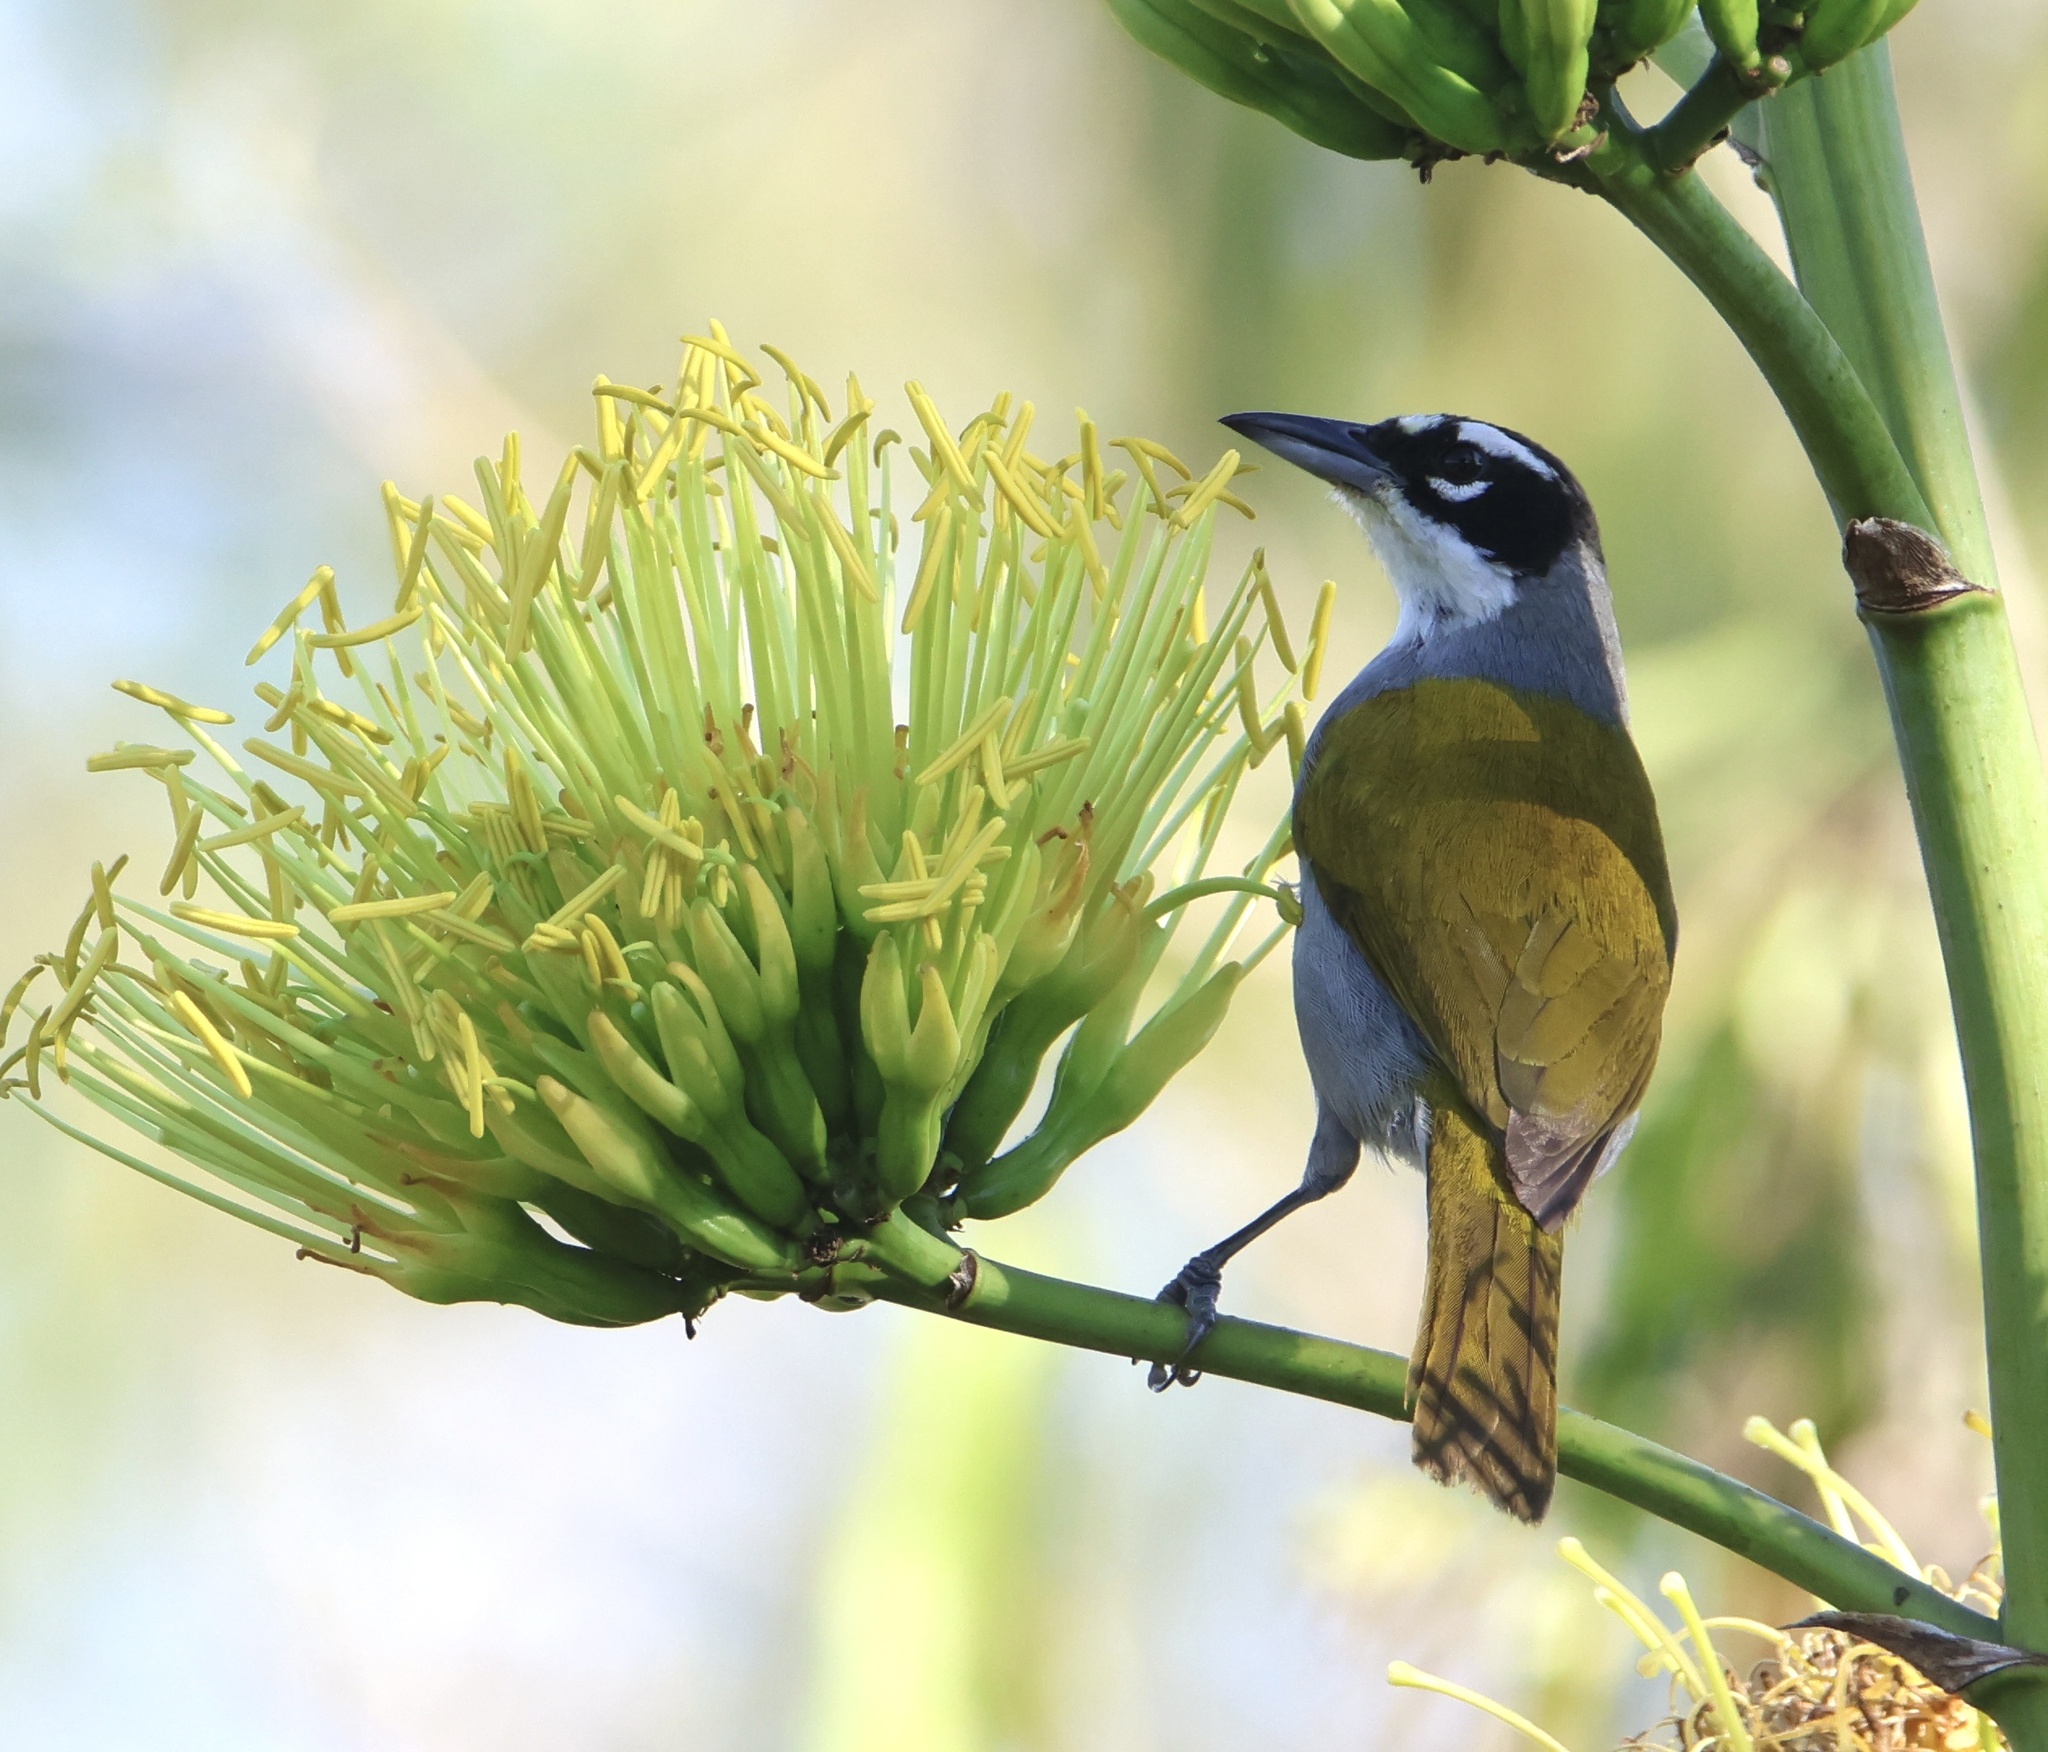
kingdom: Animalia
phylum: Chordata
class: Aves
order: Passeriformes
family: Phaenicophilidae
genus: Phaenicophilus
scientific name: Phaenicophilus palmarum
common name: Black-crowned palm-tanager
